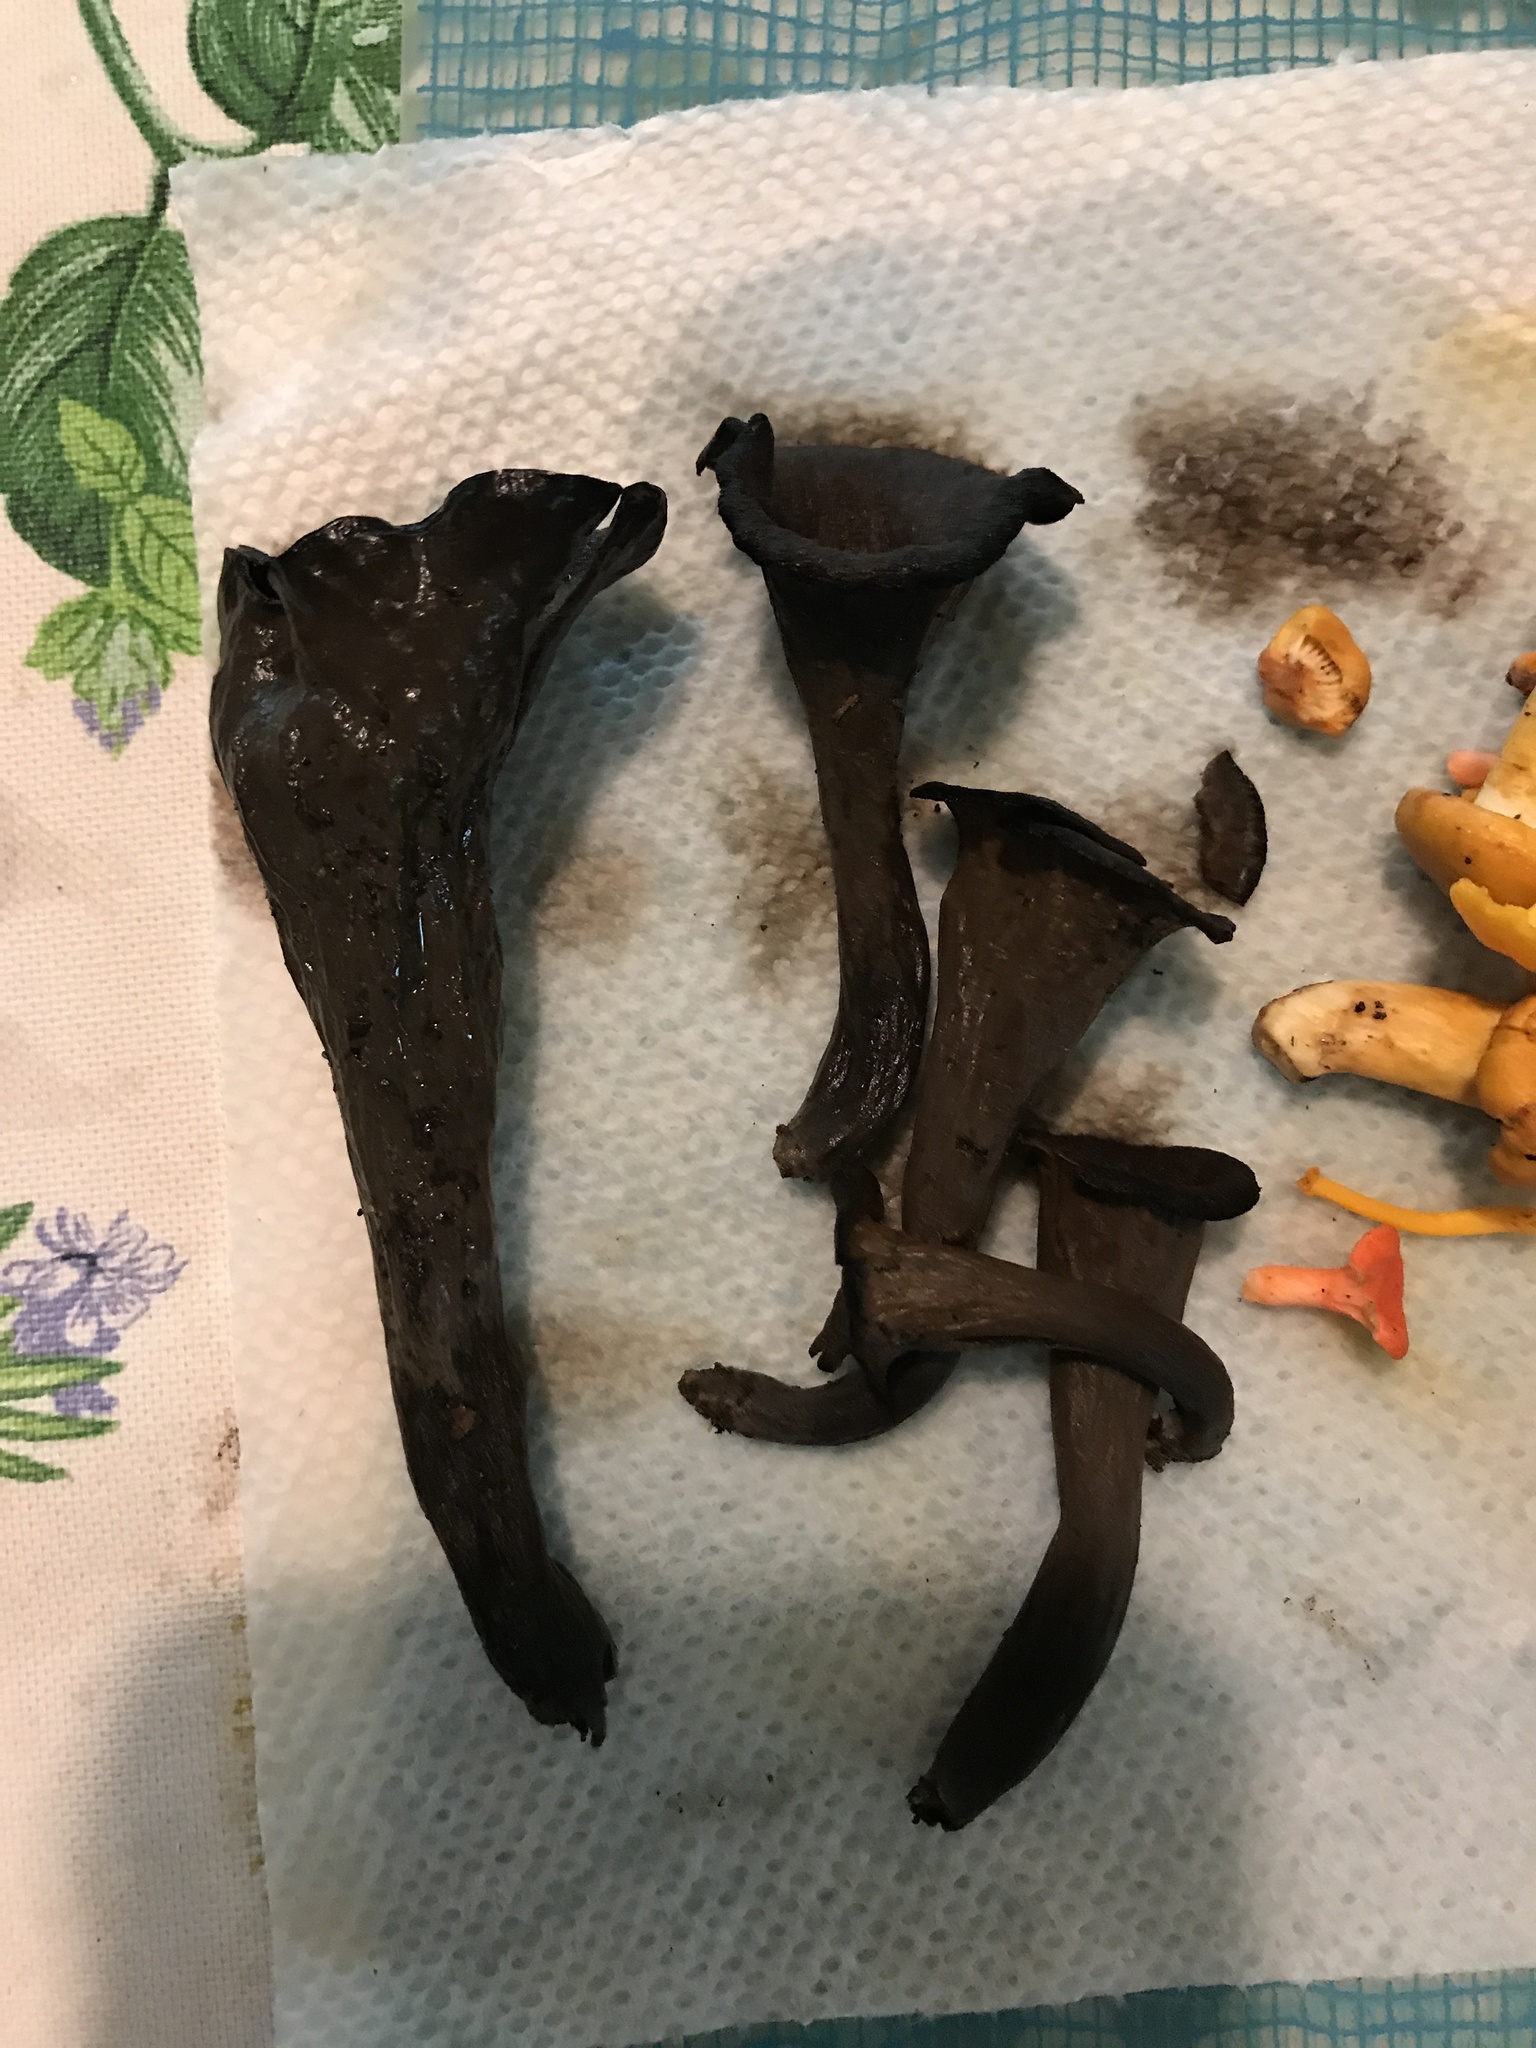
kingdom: Fungi
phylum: Basidiomycota
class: Agaricomycetes
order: Cantharellales
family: Hydnaceae
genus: Craterellus
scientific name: Craterellus cornucopioides
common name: Horn of plenty
